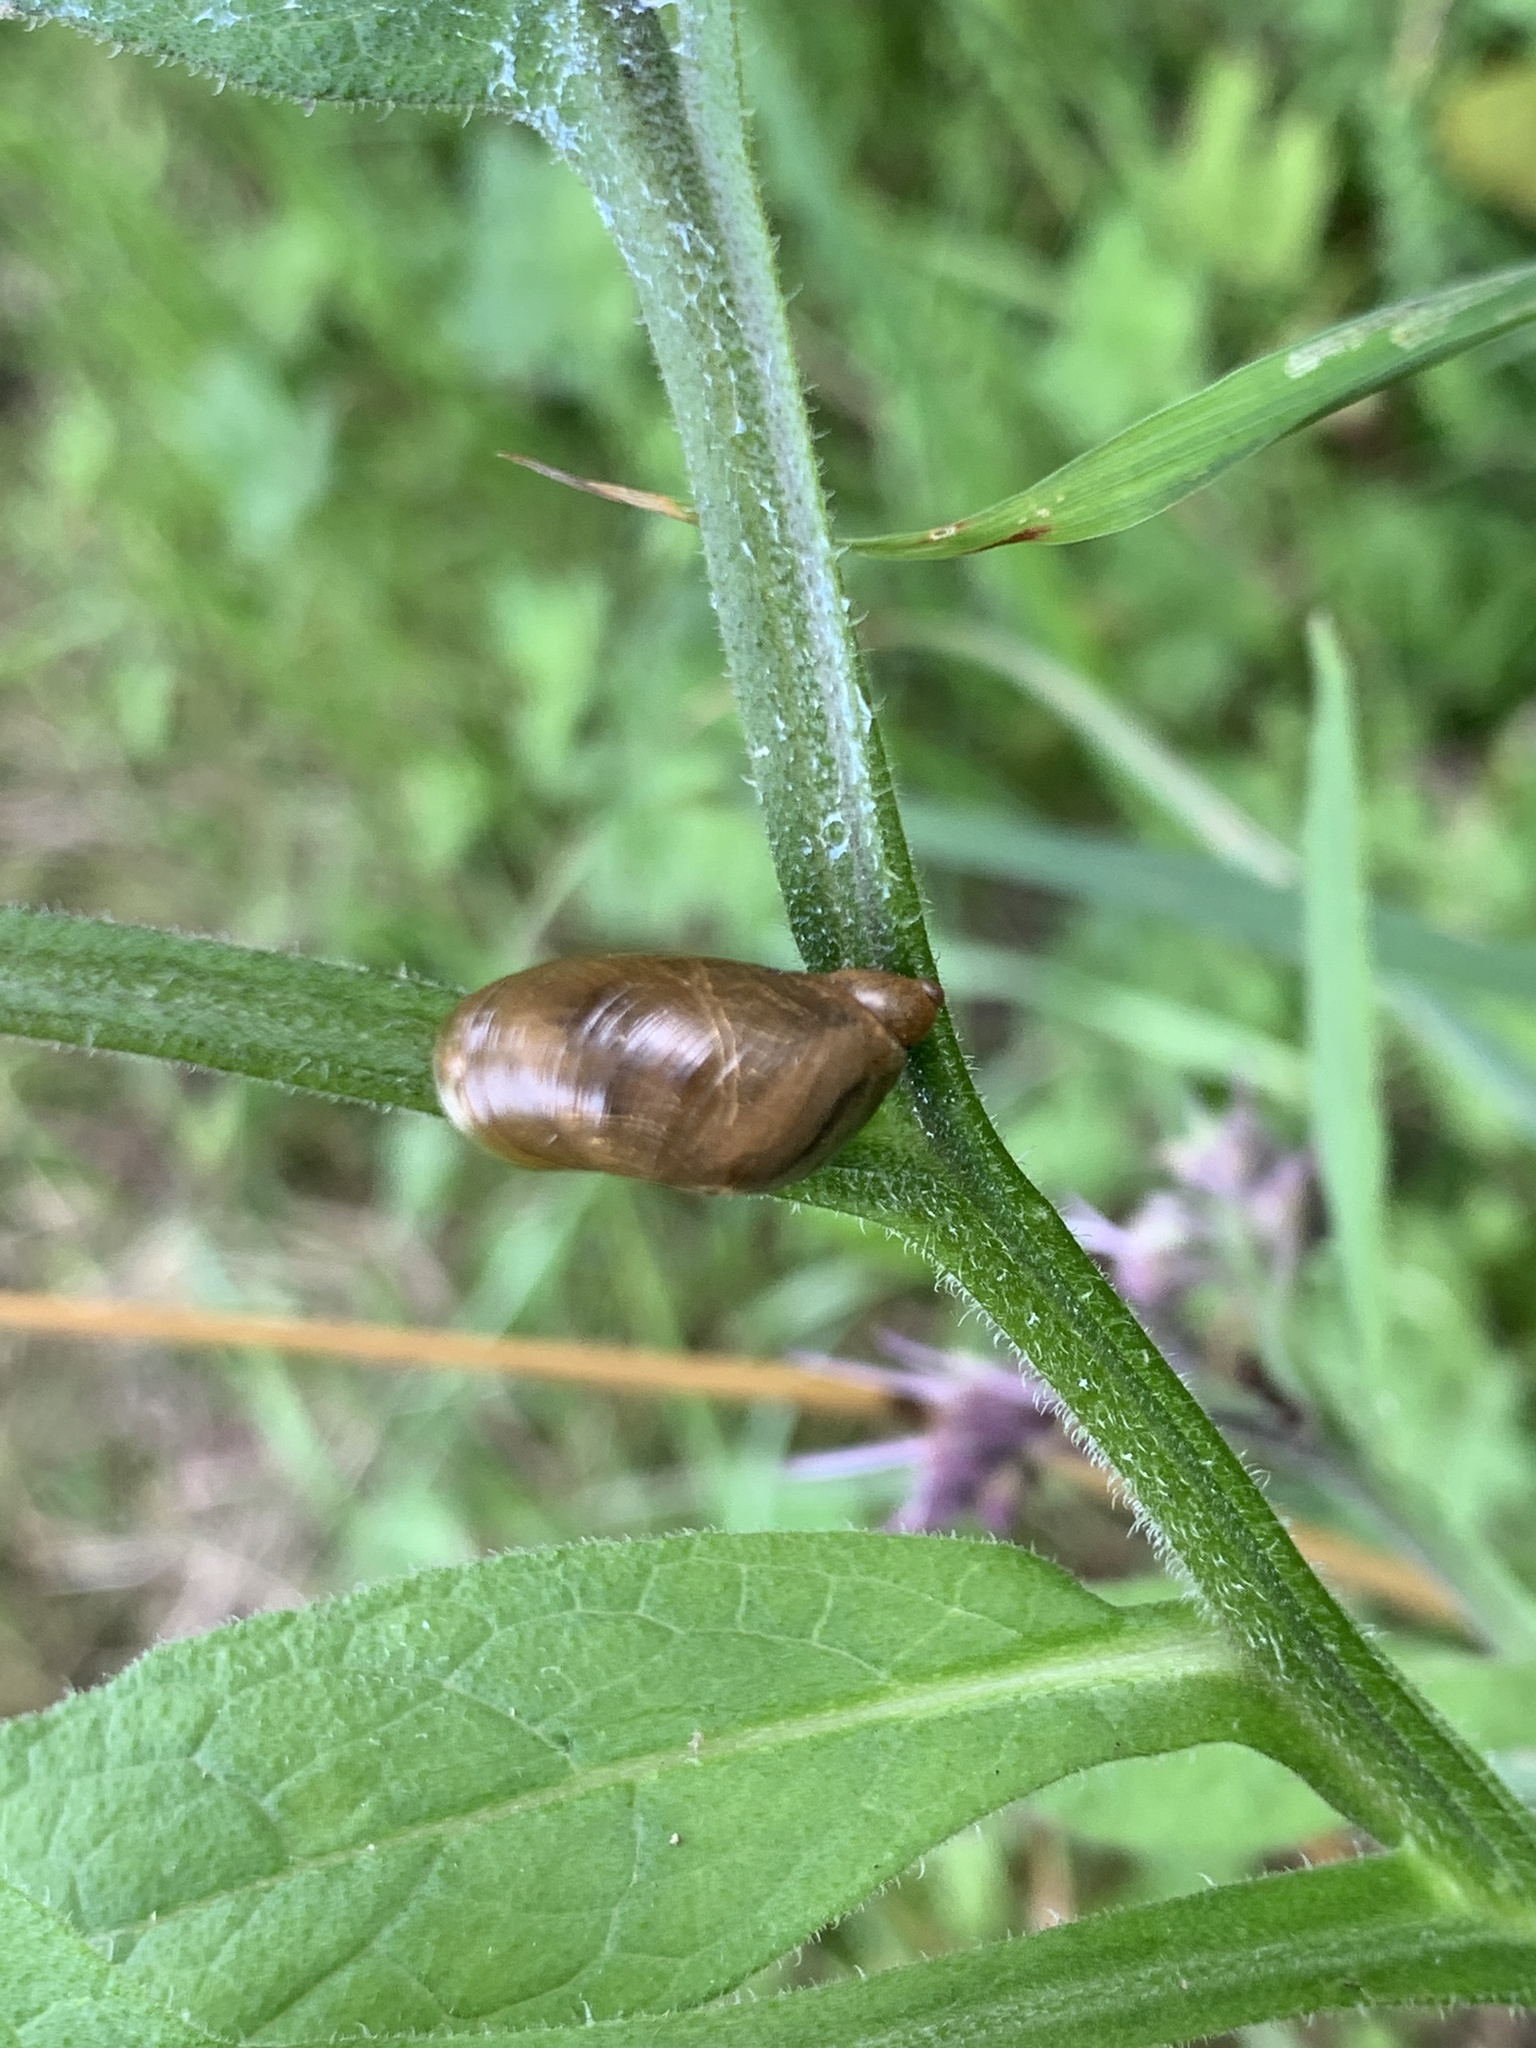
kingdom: Animalia
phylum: Mollusca
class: Gastropoda
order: Stylommatophora
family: Succineidae
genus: Succinea
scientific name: Succinea putris
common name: European ambersnail
